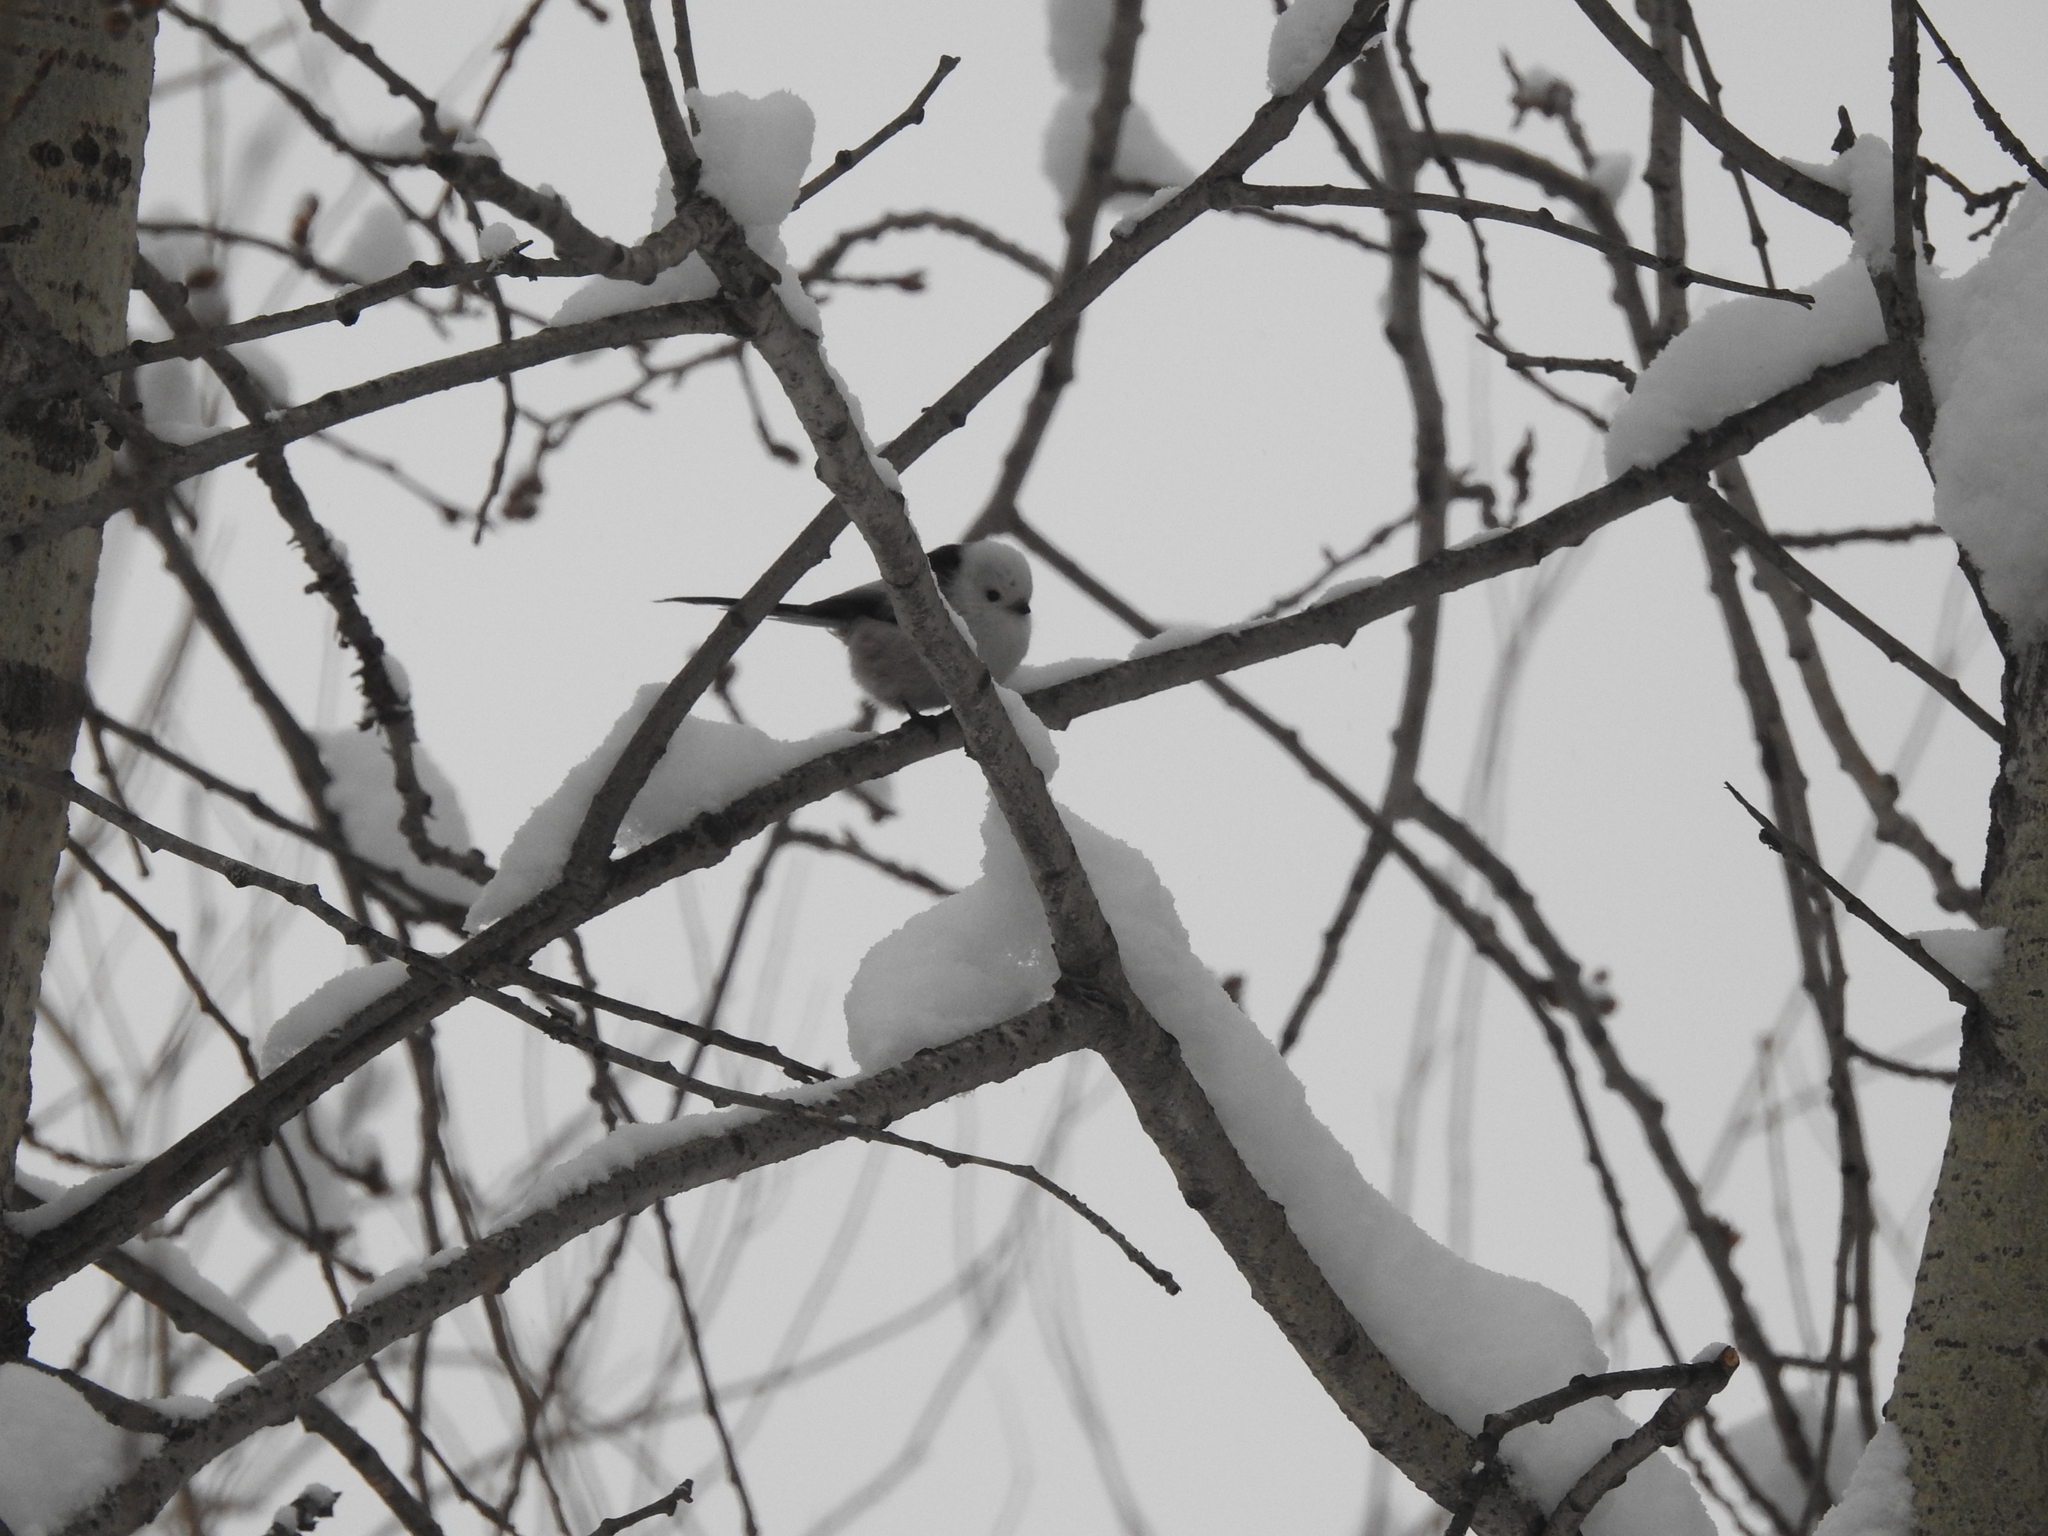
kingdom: Animalia
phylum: Chordata
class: Aves
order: Passeriformes
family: Aegithalidae
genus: Aegithalos
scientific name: Aegithalos caudatus
